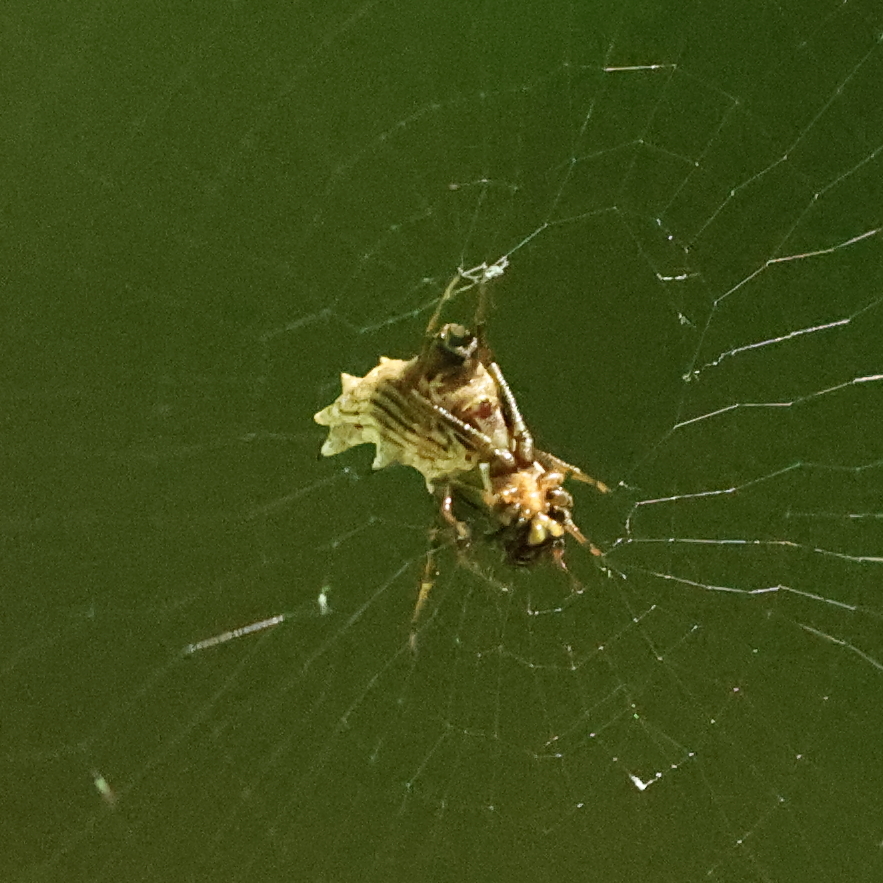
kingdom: Animalia
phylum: Arthropoda
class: Arachnida
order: Araneae
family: Araneidae
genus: Micrathena
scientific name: Micrathena gracilis
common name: Orb weavers
